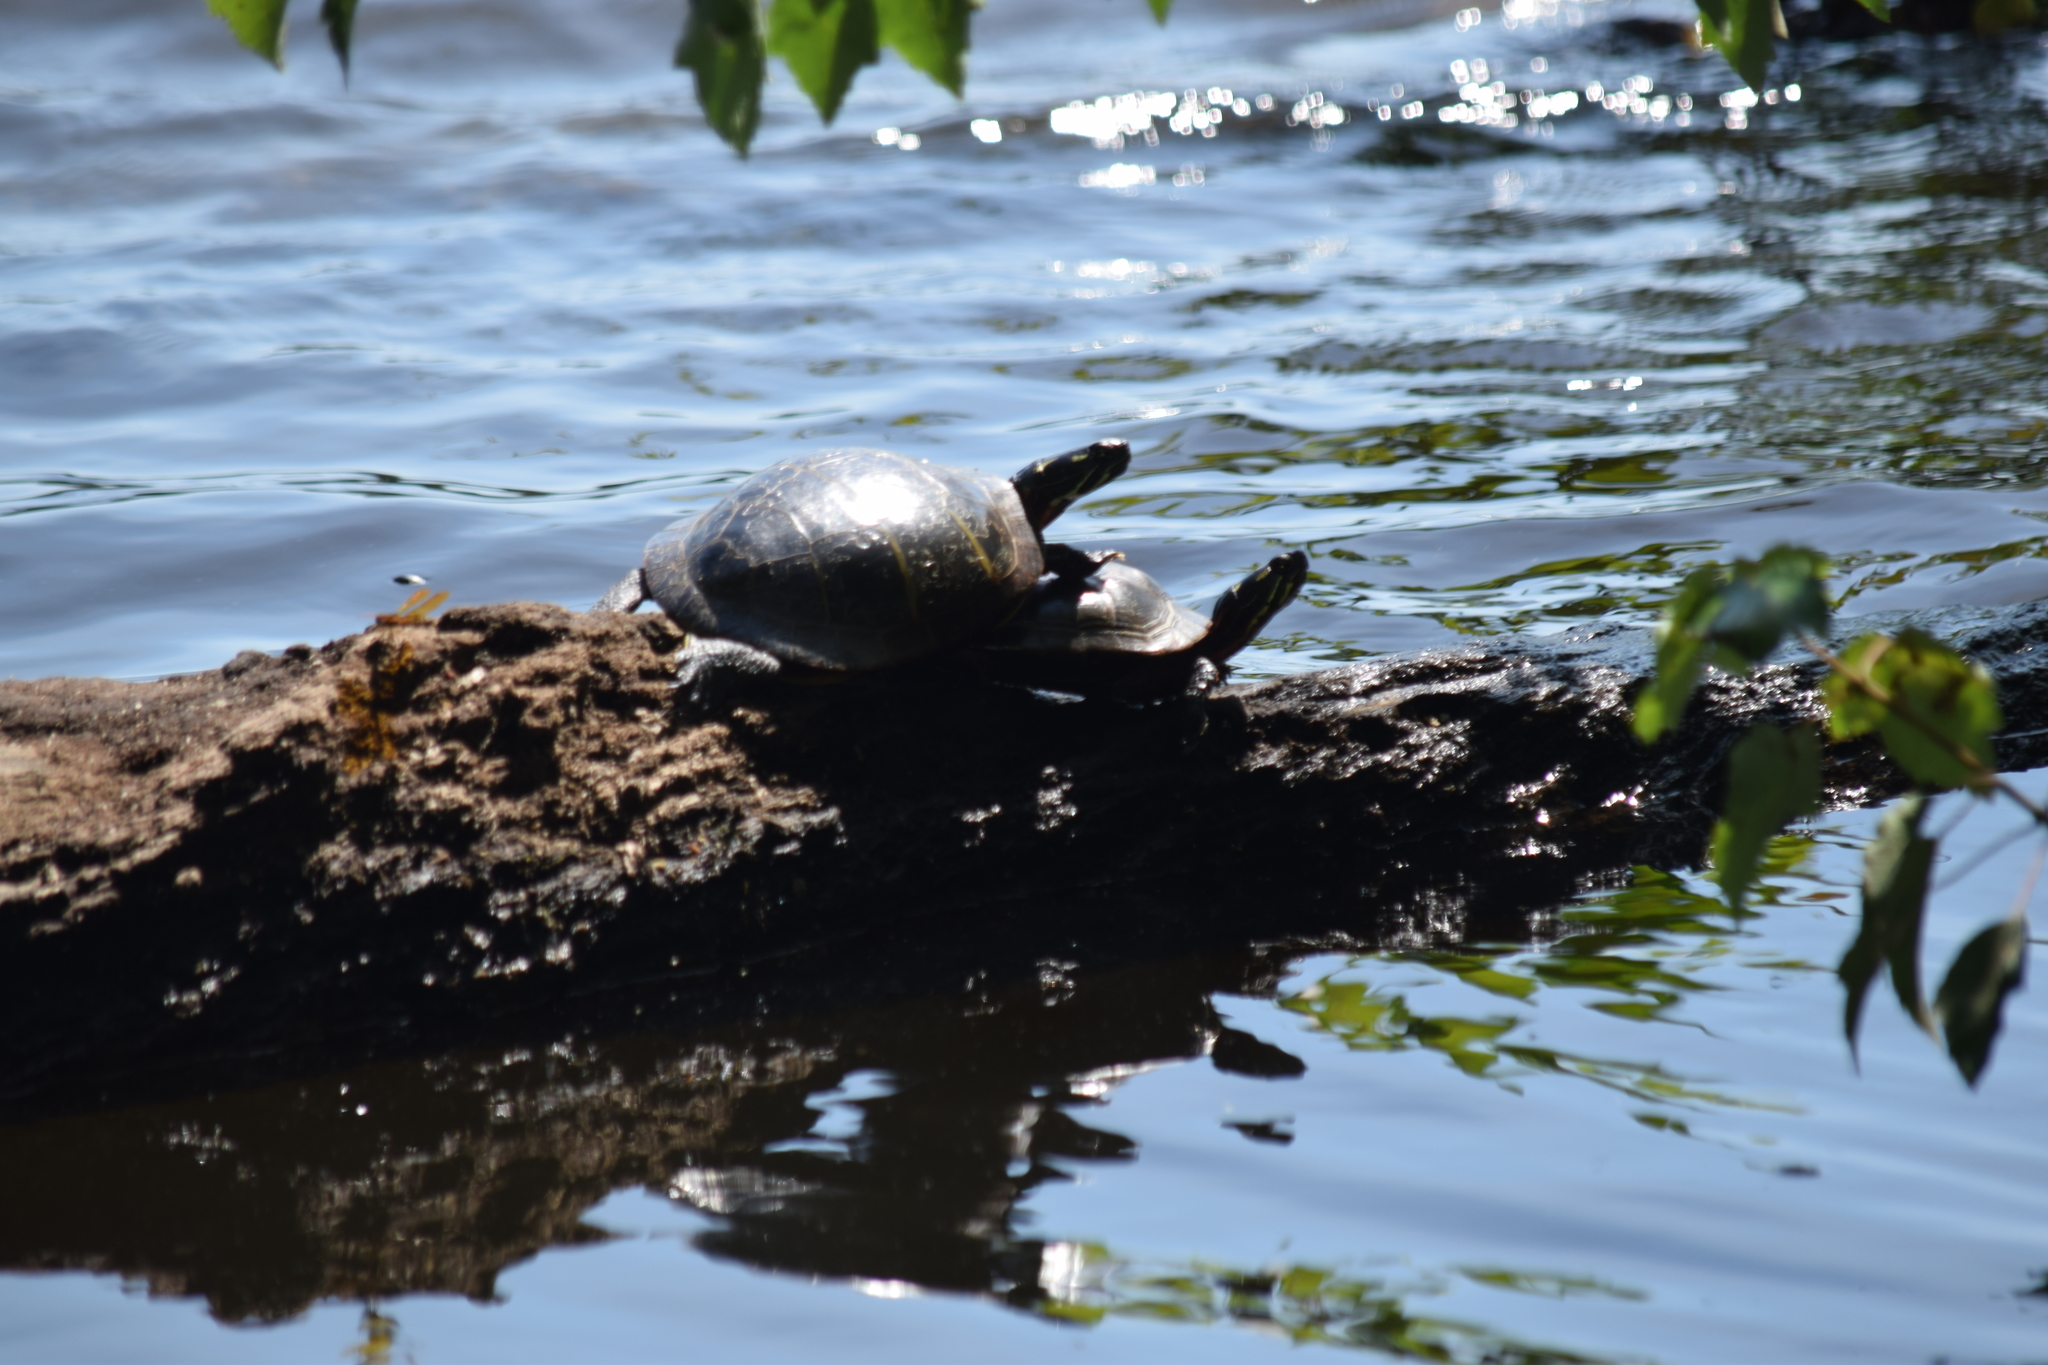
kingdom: Animalia
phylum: Chordata
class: Testudines
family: Emydidae
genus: Chrysemys
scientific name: Chrysemys picta
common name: Painted turtle
